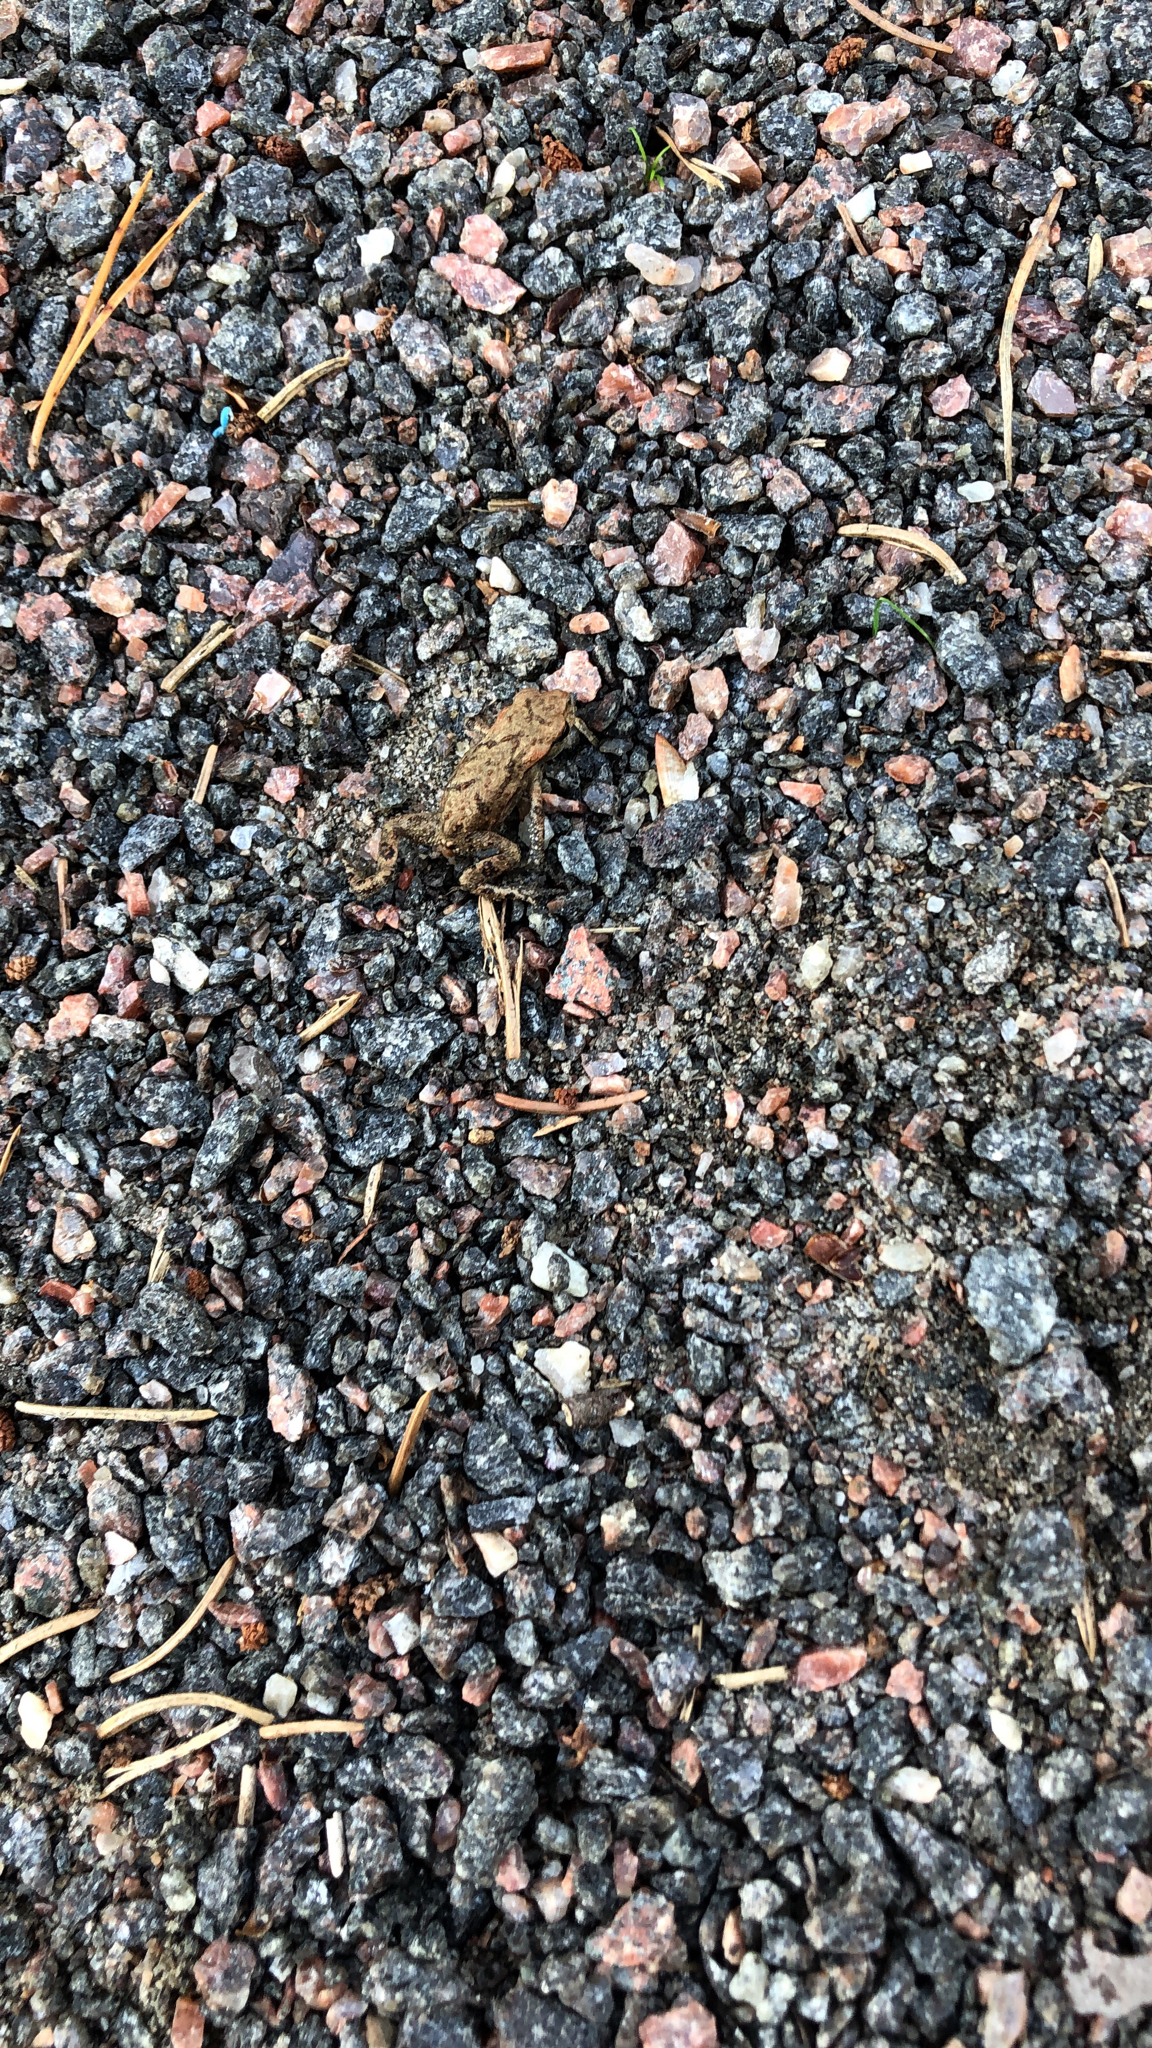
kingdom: Animalia
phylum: Chordata
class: Amphibia
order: Anura
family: Bufonidae
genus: Bufo
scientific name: Bufo bufo
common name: Common toad
